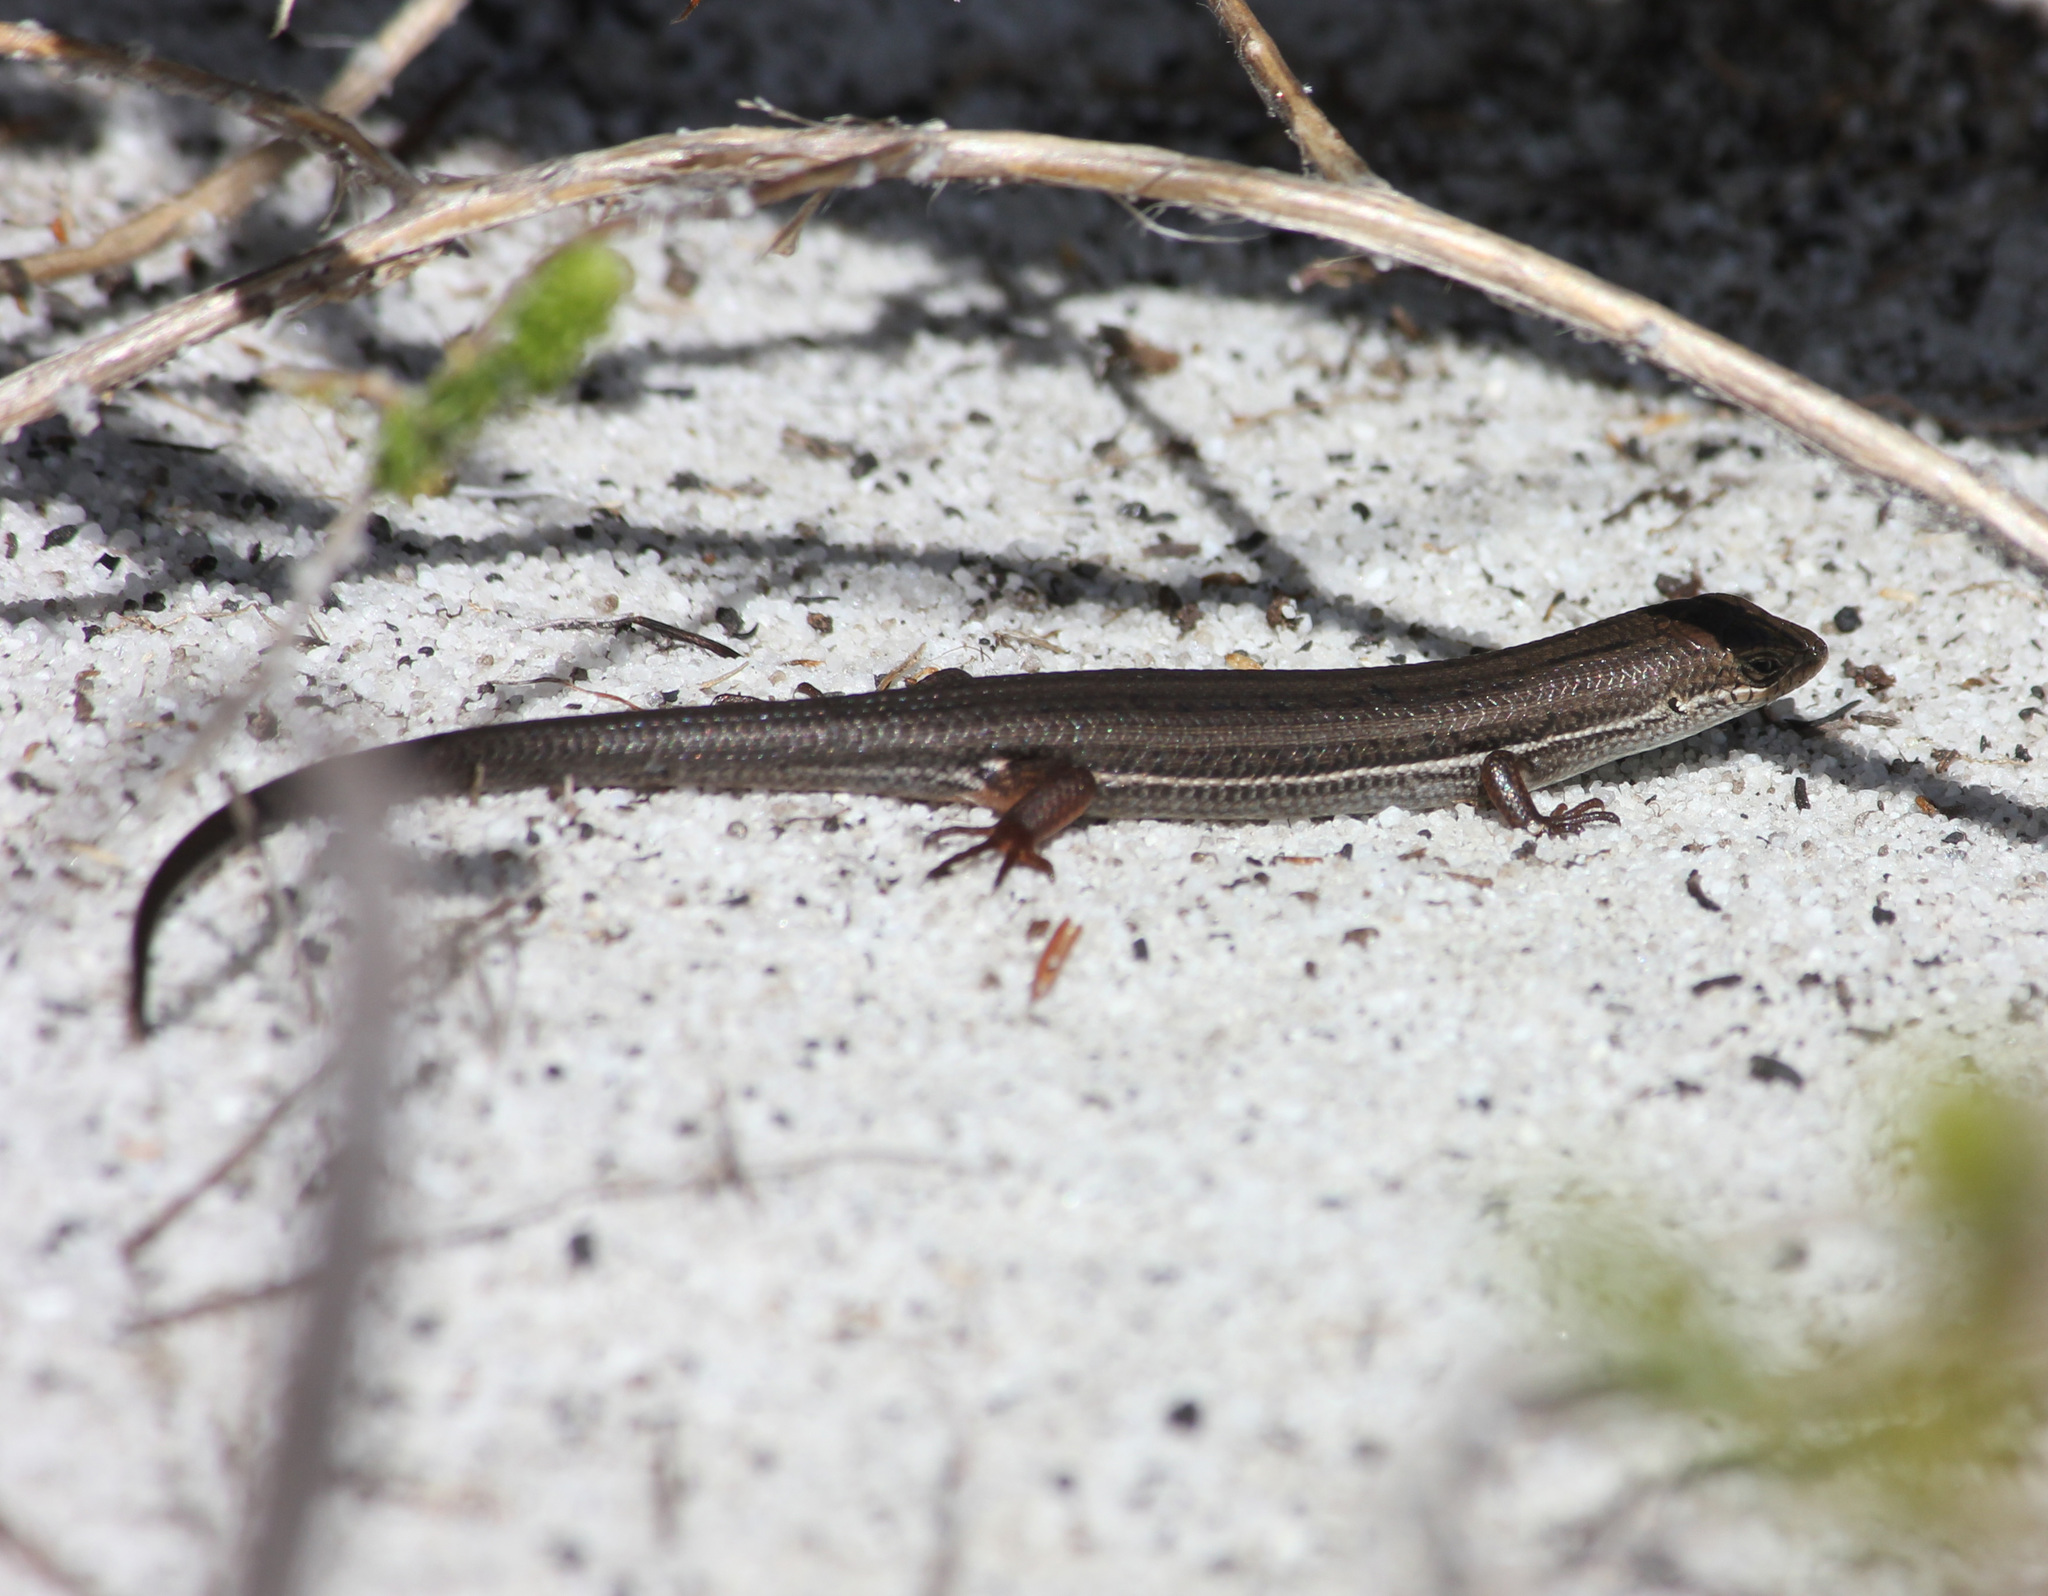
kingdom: Animalia
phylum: Chordata
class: Squamata
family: Scincidae
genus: Trachylepis
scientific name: Trachylepis homalocephala
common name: Red-sided skink
